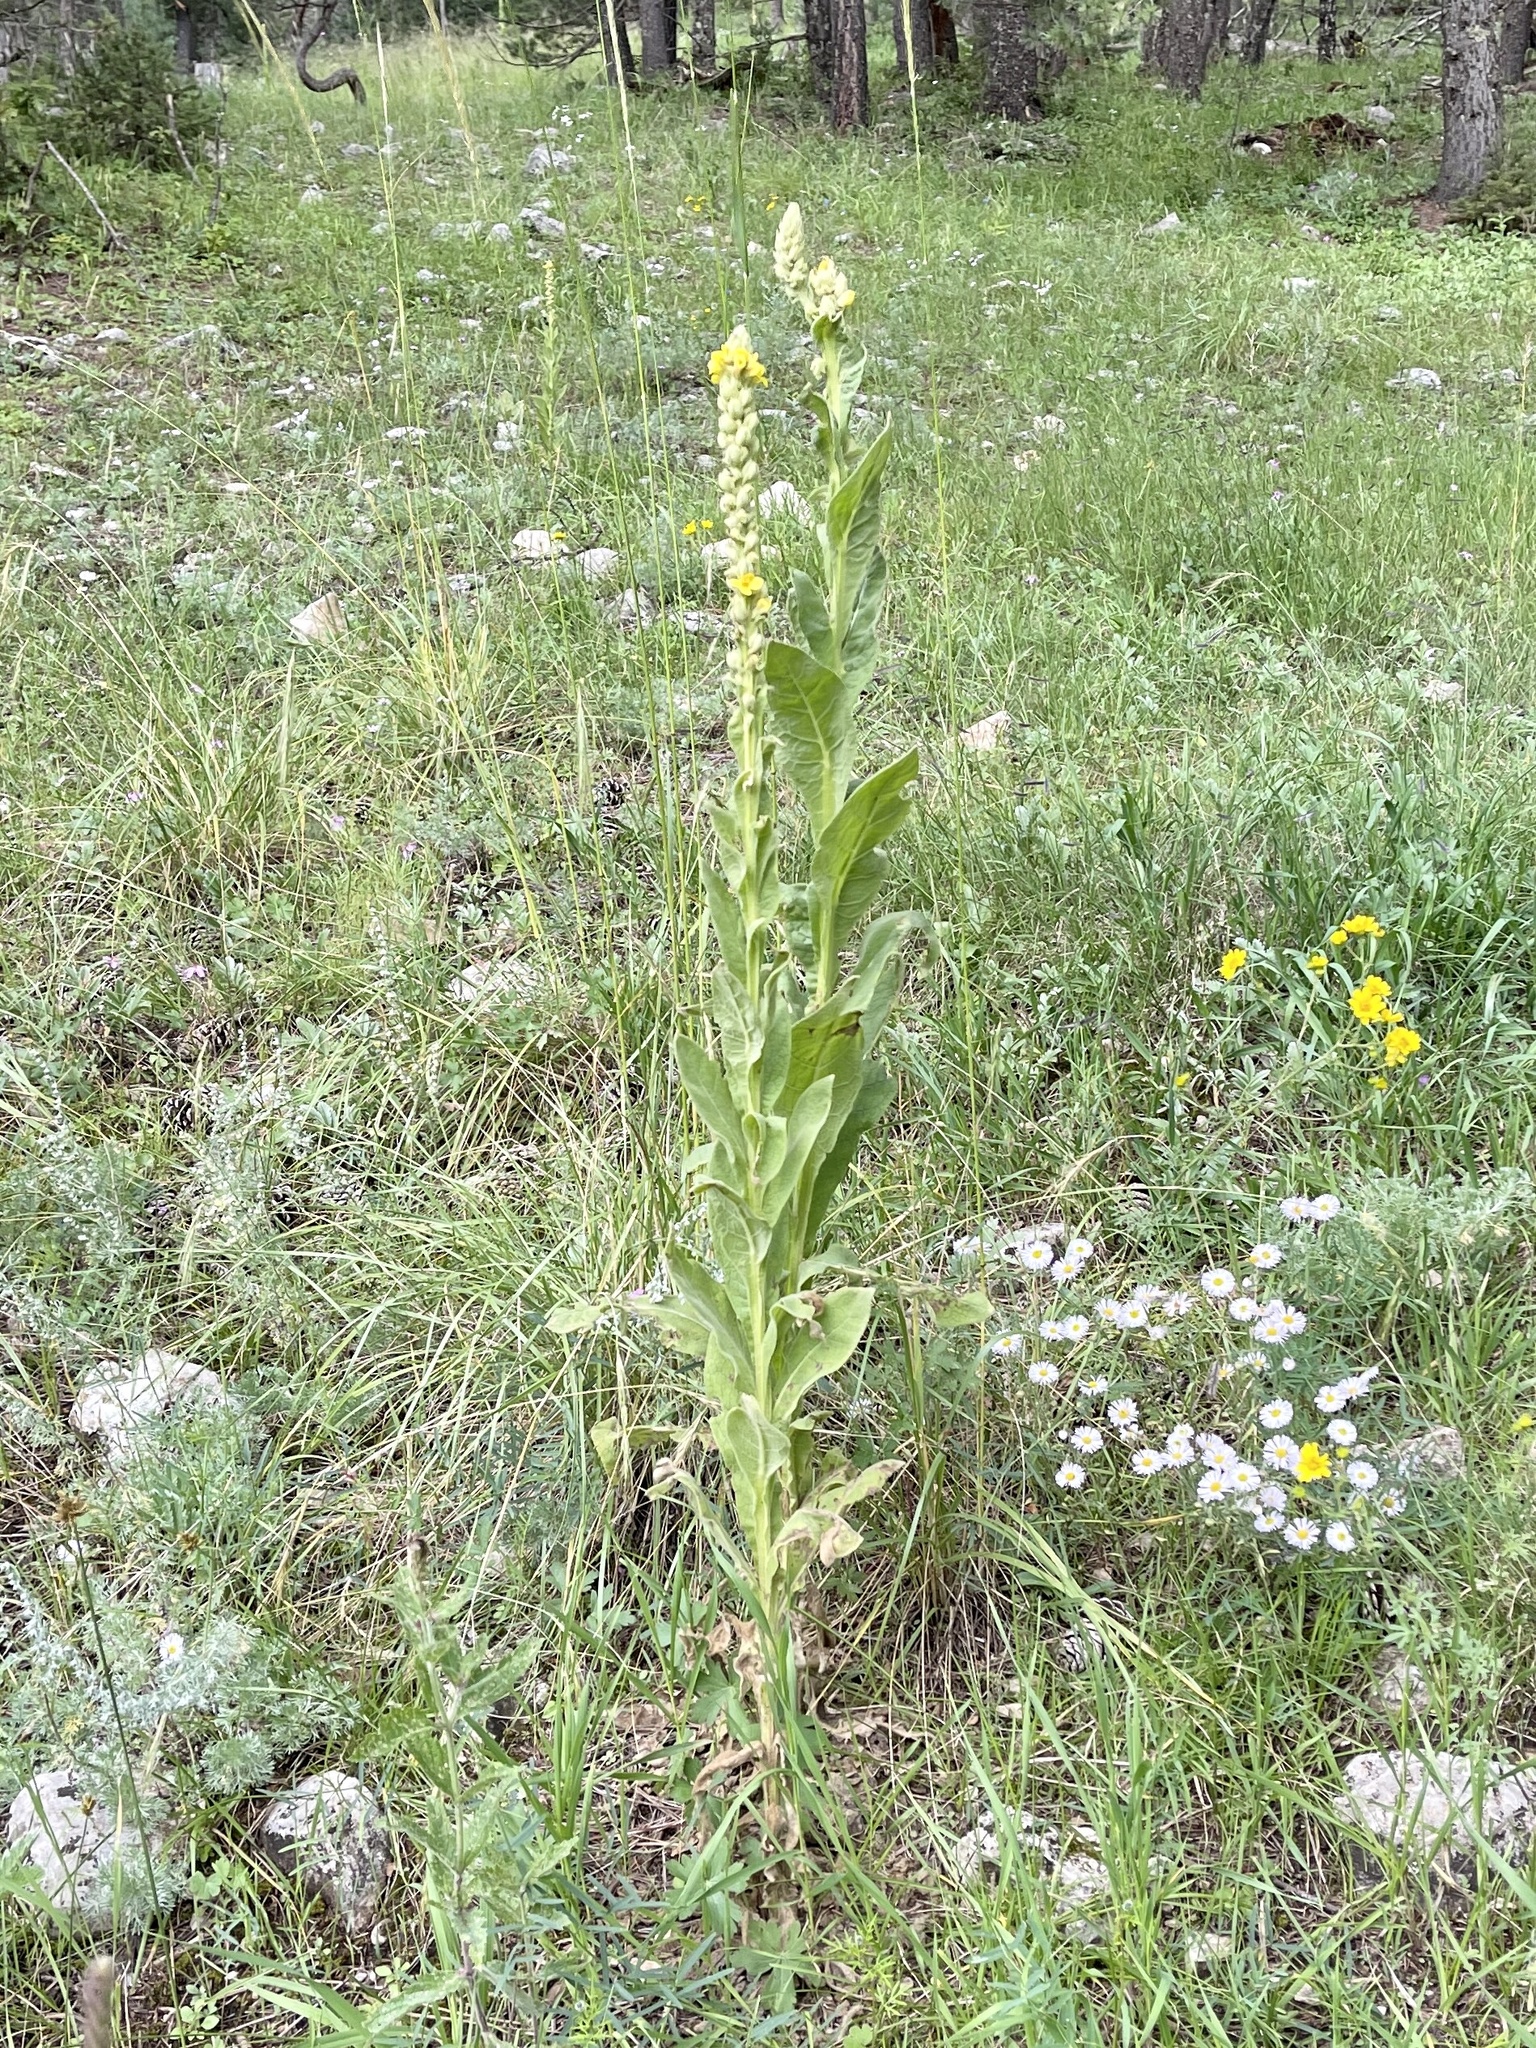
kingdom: Plantae
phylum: Tracheophyta
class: Magnoliopsida
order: Lamiales
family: Scrophulariaceae
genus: Verbascum
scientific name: Verbascum thapsus
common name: Common mullein
